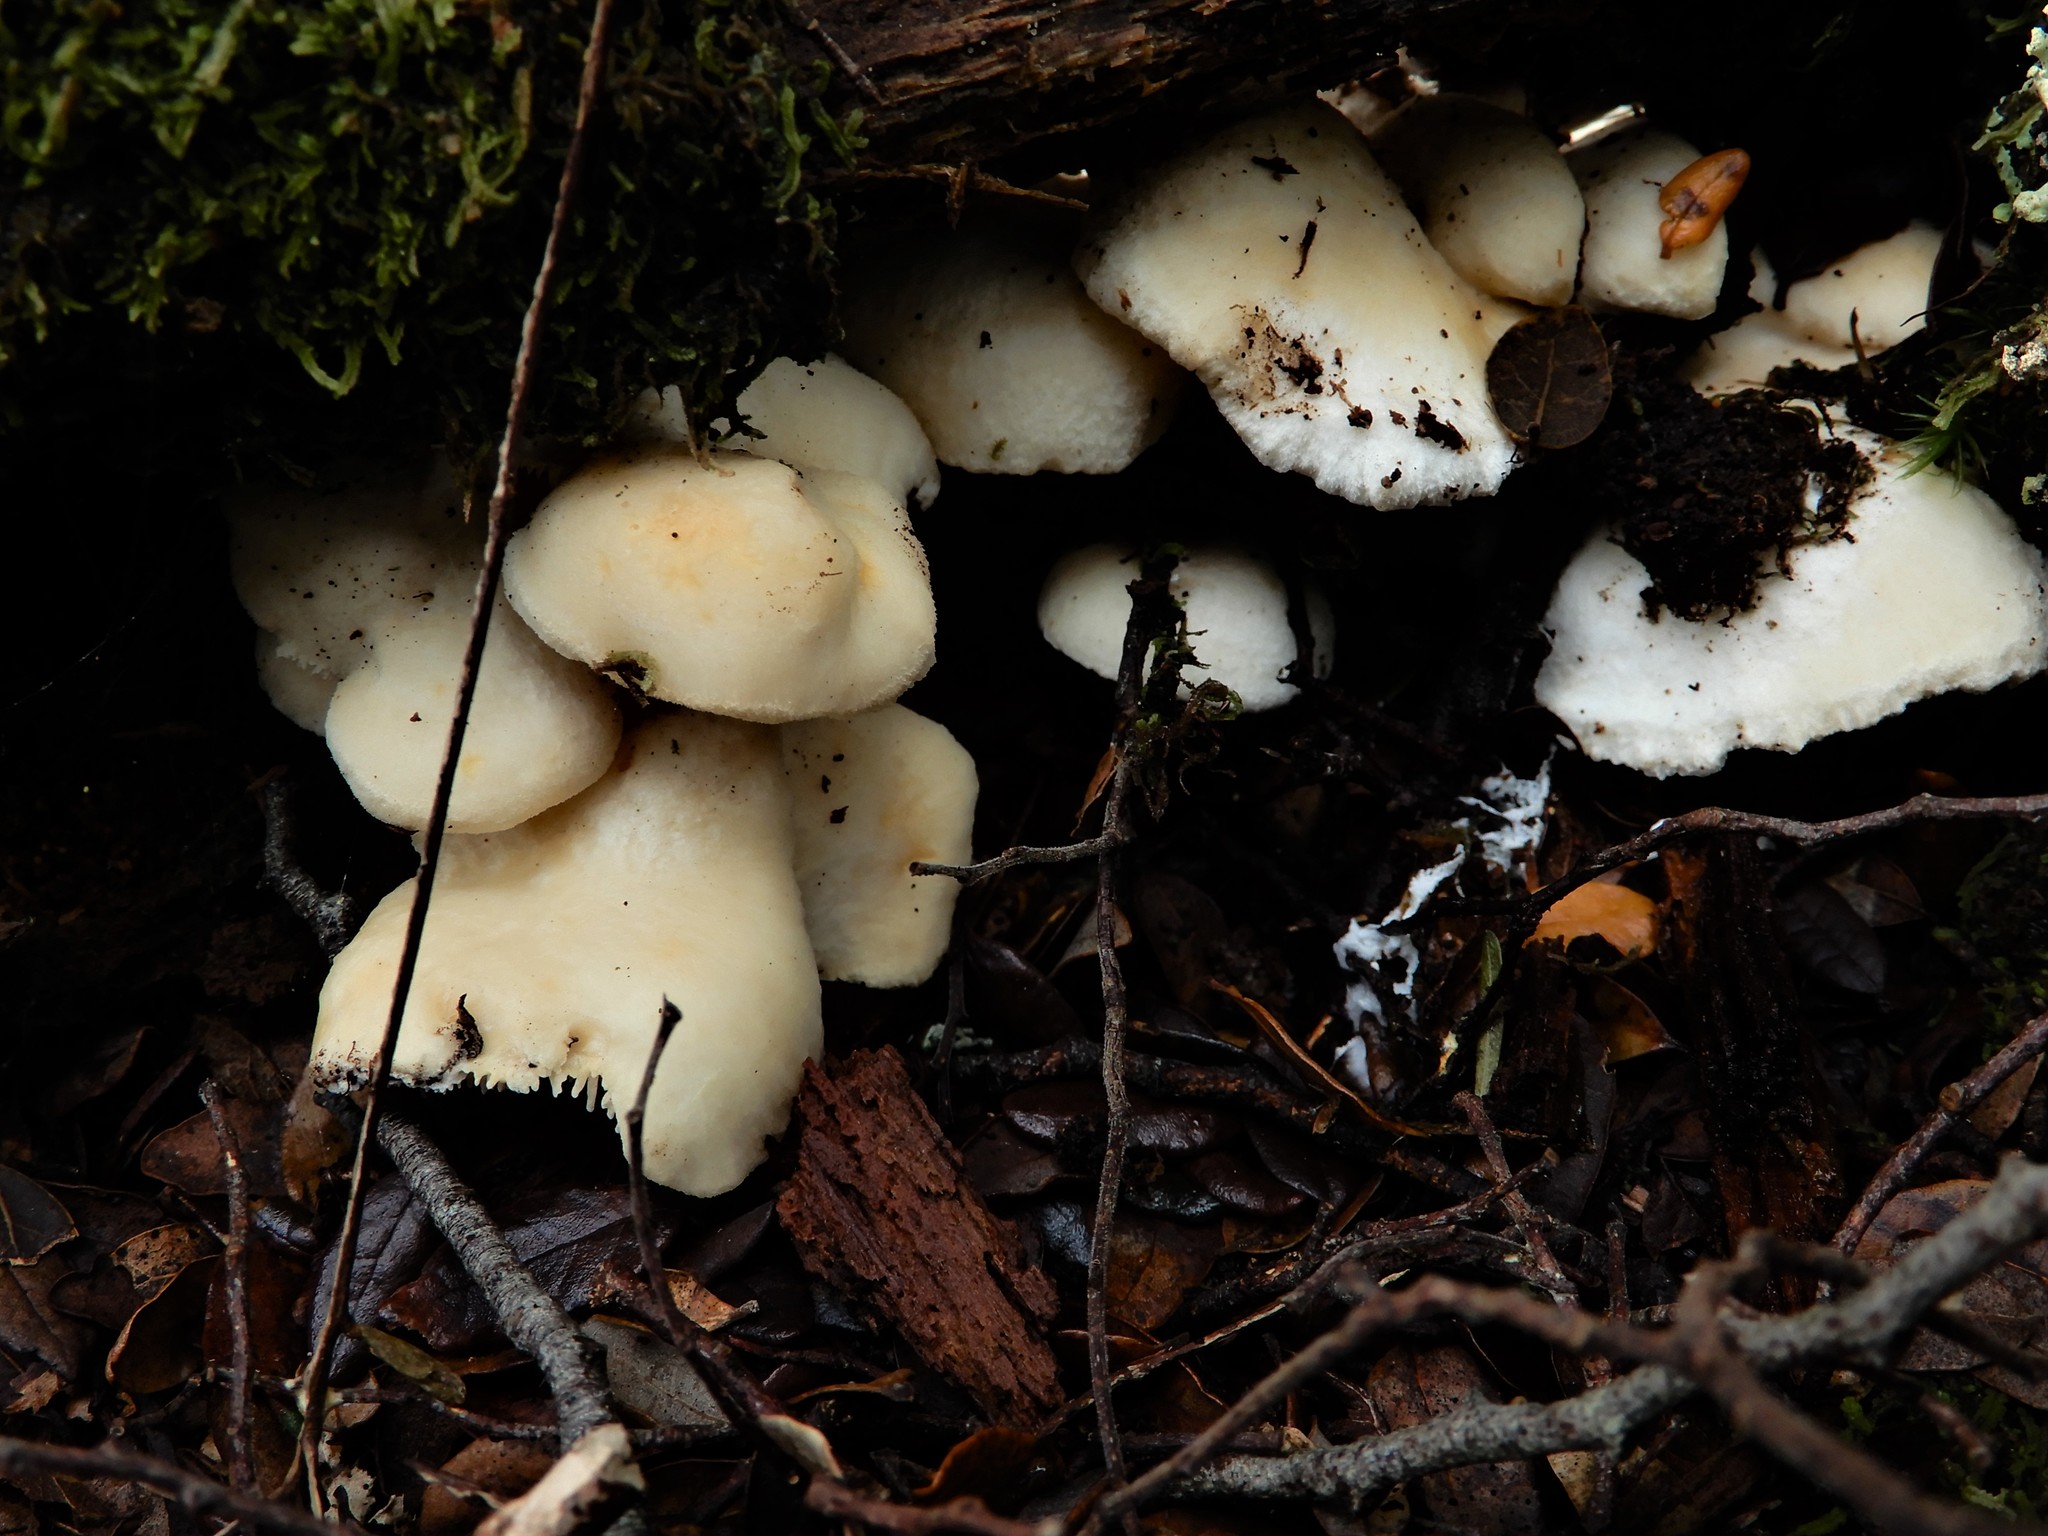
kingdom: Fungi
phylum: Basidiomycota
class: Agaricomycetes
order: Cantharellales
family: Hydnaceae
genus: Hydnum
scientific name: Hydnum ambustum
